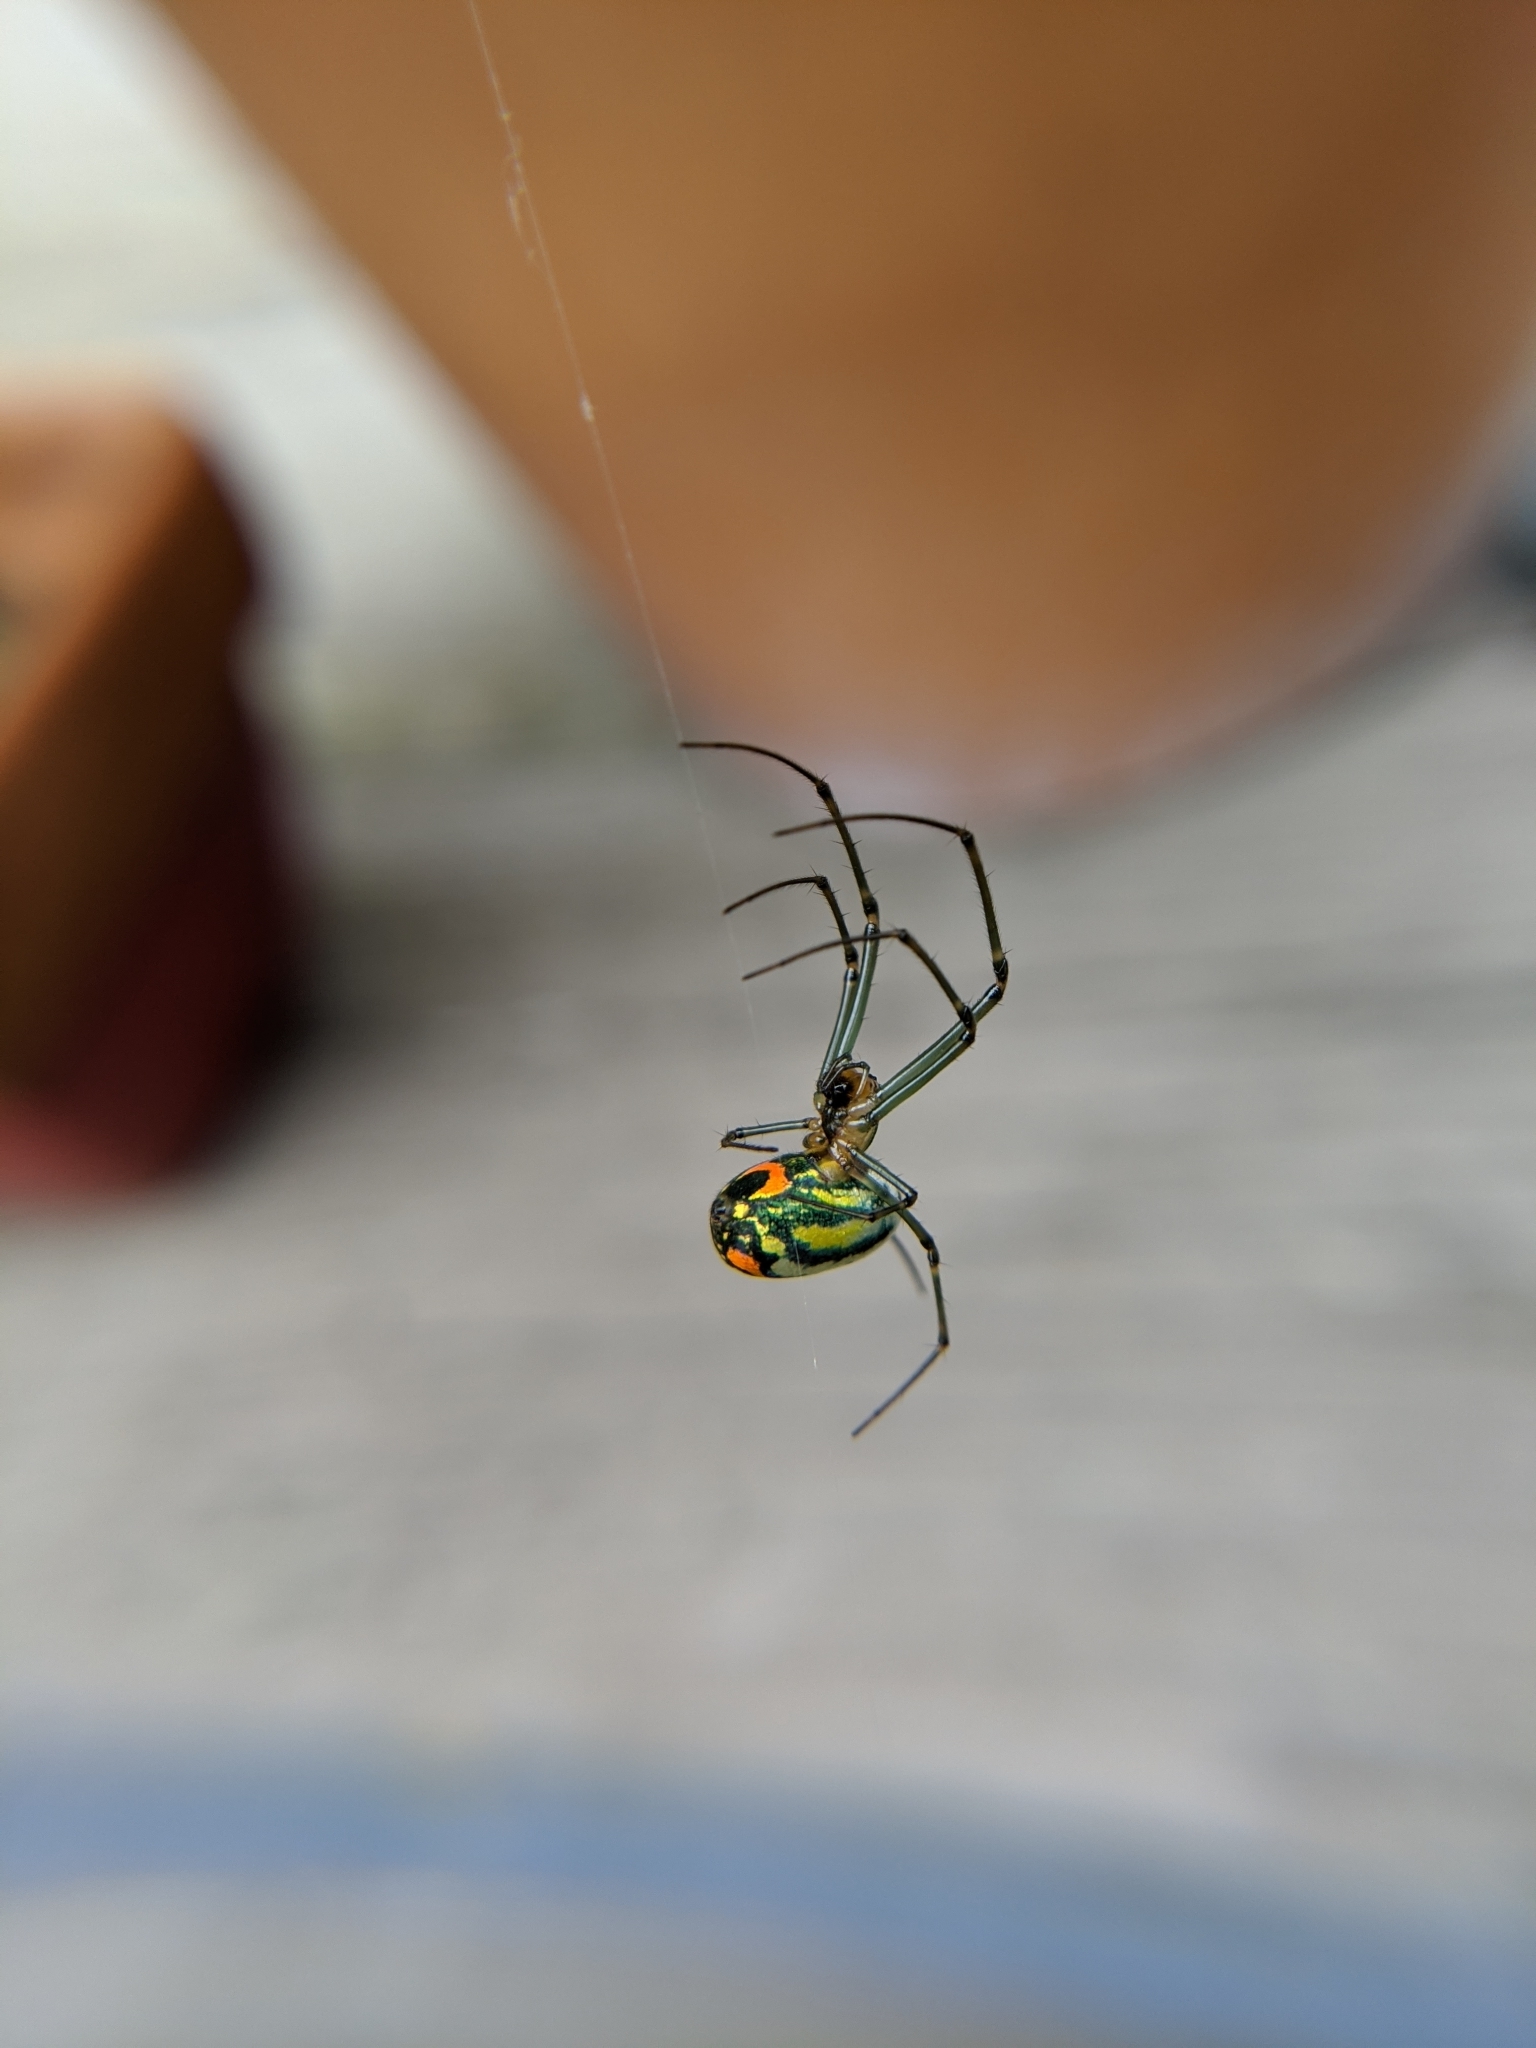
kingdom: Animalia
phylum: Arthropoda
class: Arachnida
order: Araneae
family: Tetragnathidae
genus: Leucauge
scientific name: Leucauge argyrobapta
